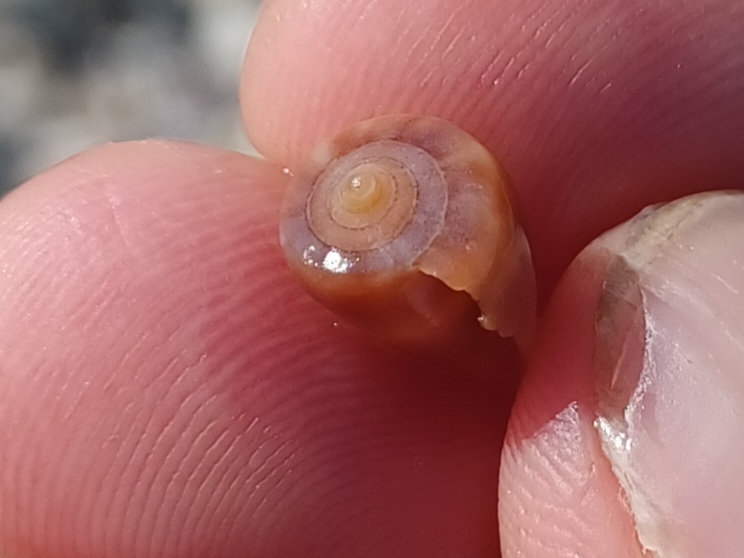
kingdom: Animalia
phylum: Mollusca
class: Gastropoda
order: Neogastropoda
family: Conidae
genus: Conus
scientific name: Conus papilliferus
